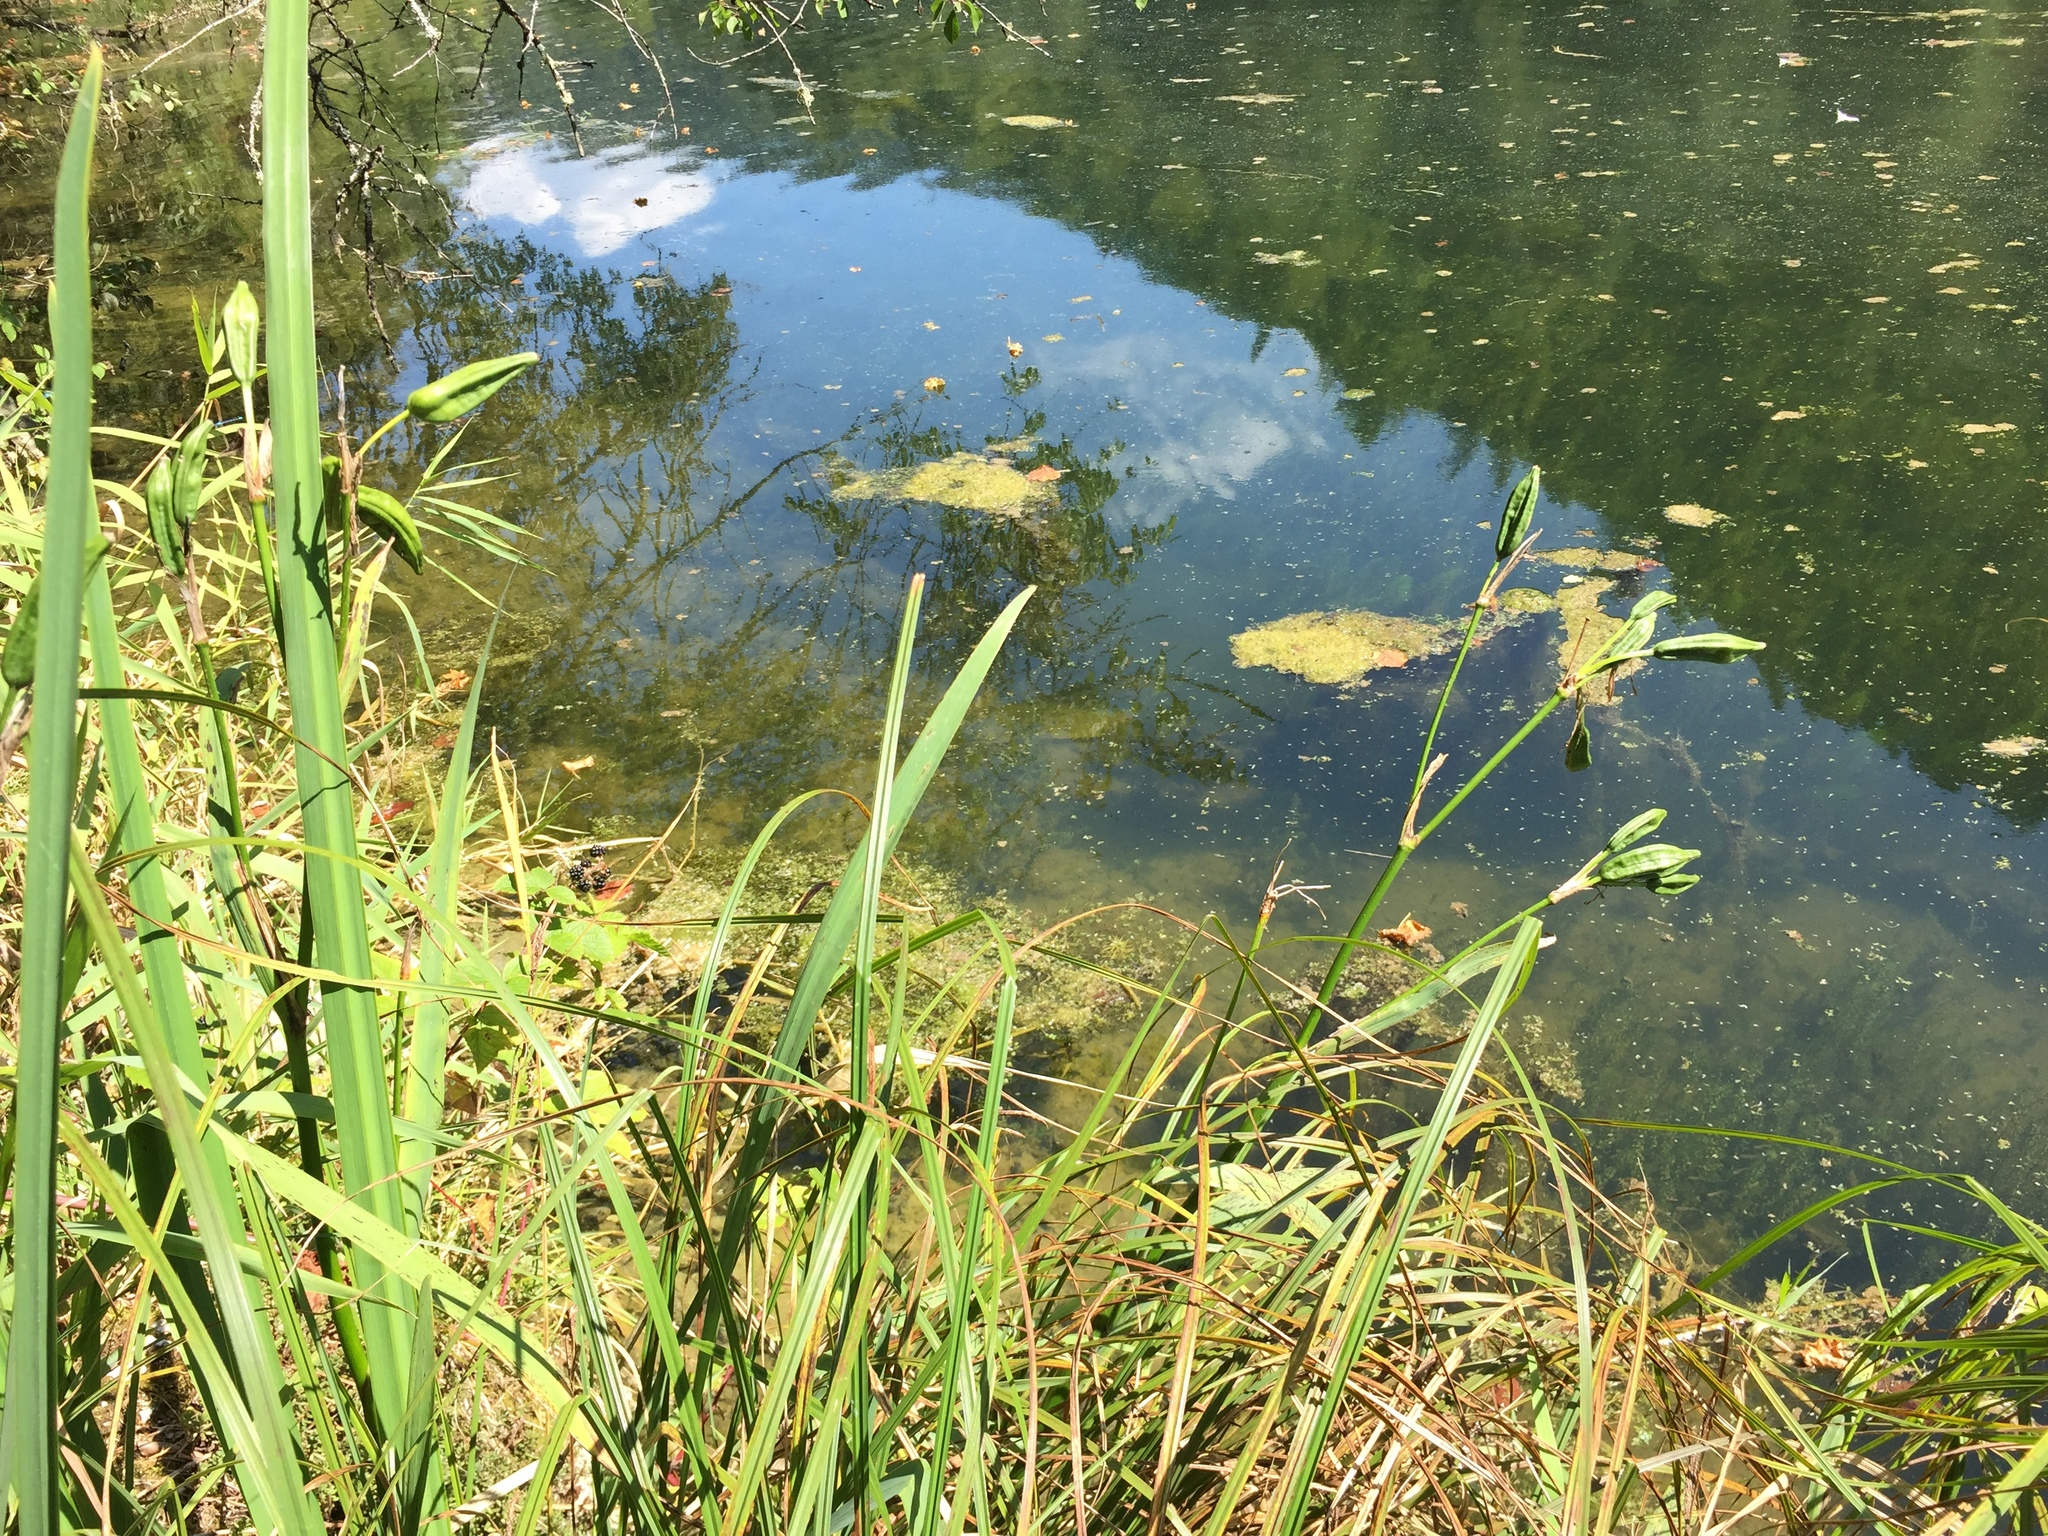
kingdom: Plantae
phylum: Tracheophyta
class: Liliopsida
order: Asparagales
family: Iridaceae
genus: Iris
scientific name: Iris pseudacorus
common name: Yellow flag
